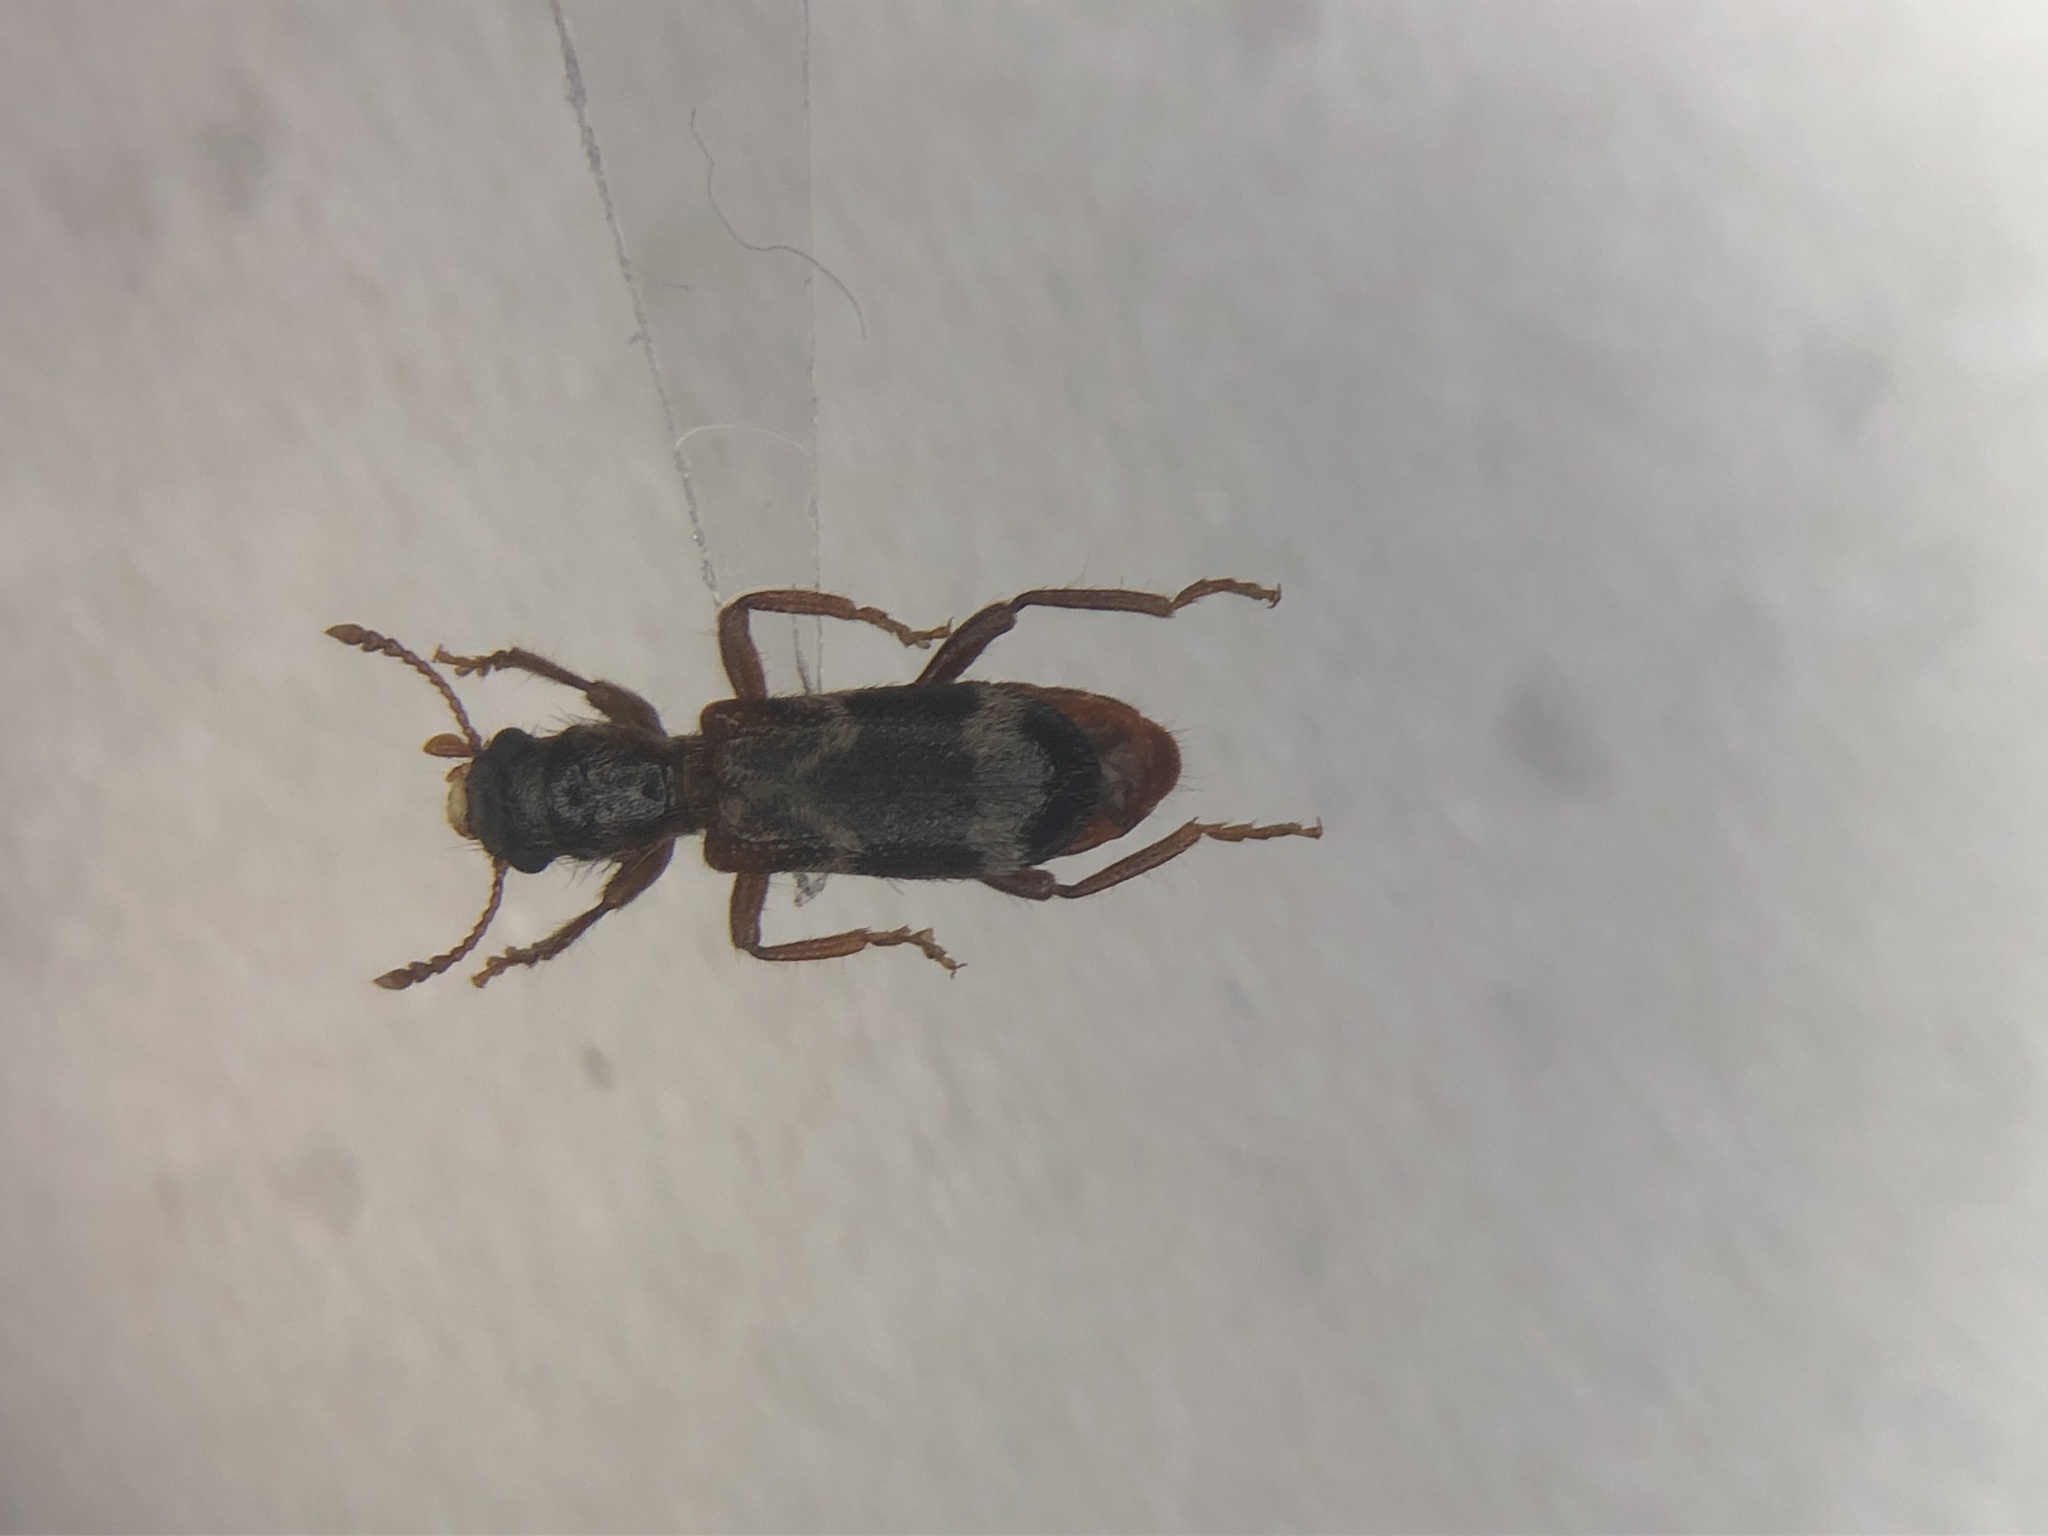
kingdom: Animalia
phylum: Arthropoda
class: Insecta
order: Coleoptera
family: Cleridae
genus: Thanasimus
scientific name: Thanasimus undatulus
